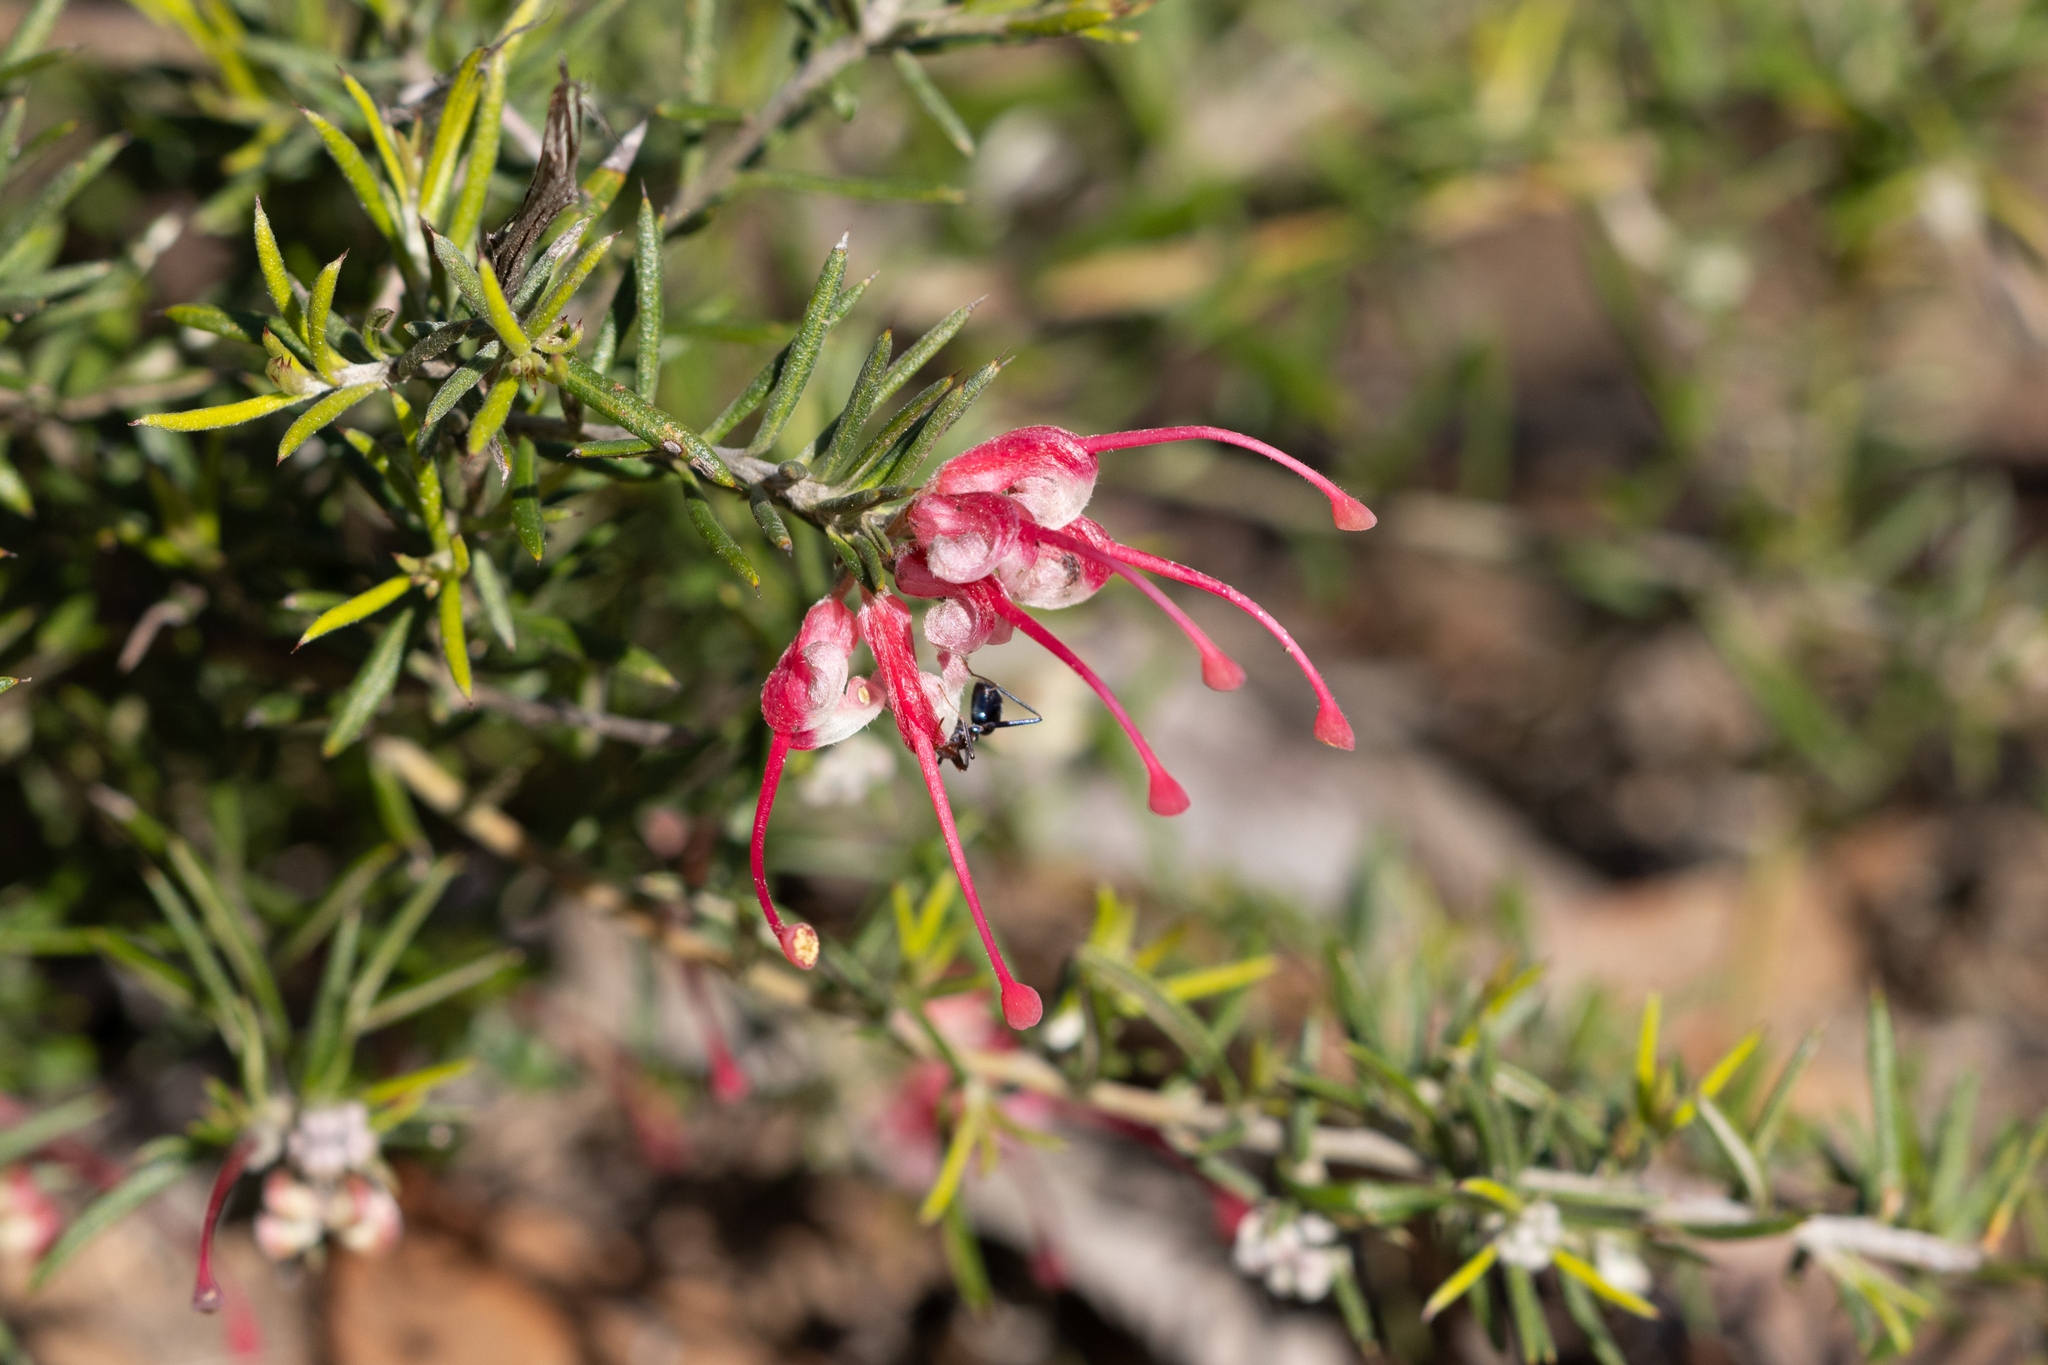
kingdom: Plantae
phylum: Tracheophyta
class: Magnoliopsida
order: Proteales
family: Proteaceae
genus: Grevillea
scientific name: Grevillea lavandulacea
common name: Lavender grevillea
